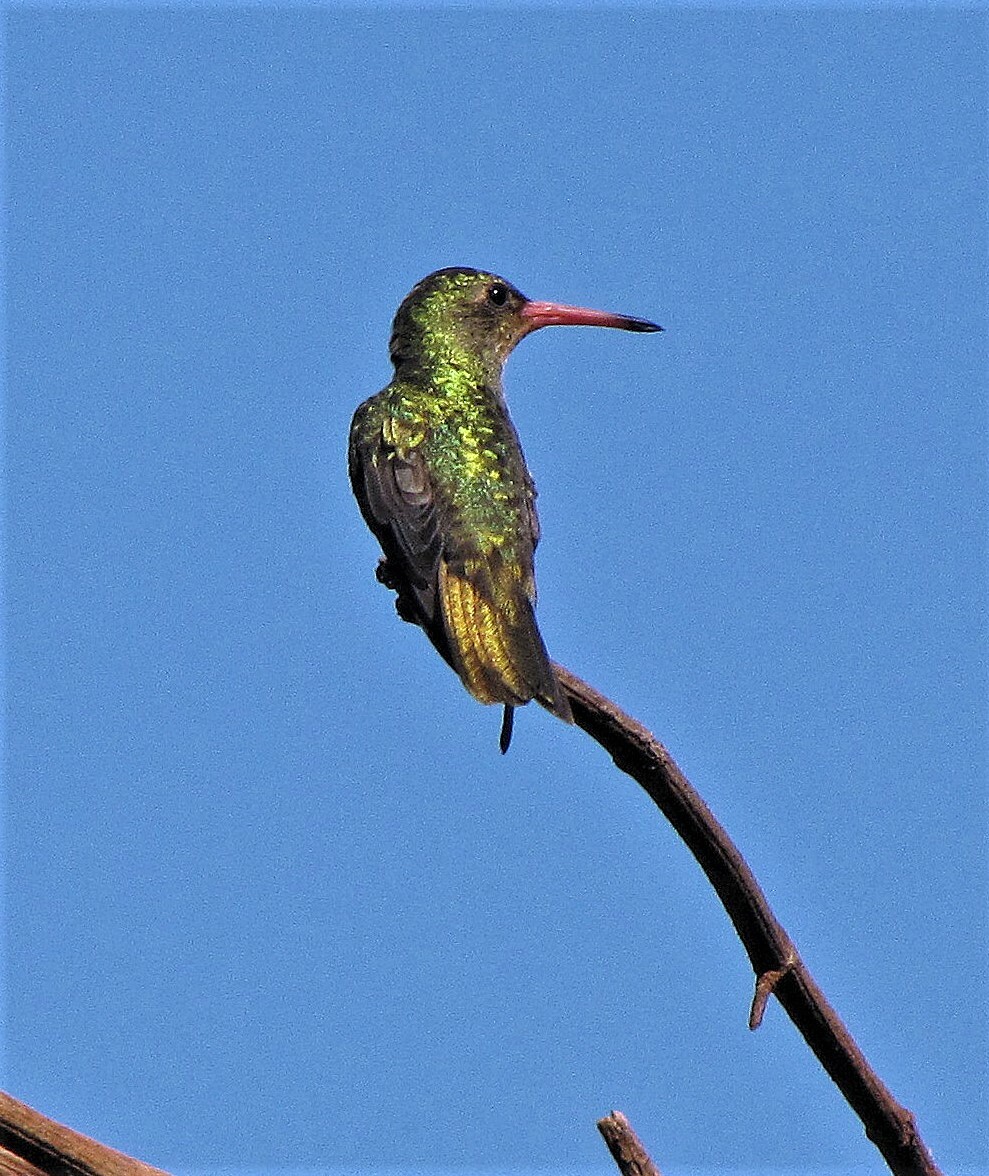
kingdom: Animalia
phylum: Chordata
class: Aves
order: Apodiformes
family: Trochilidae
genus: Hylocharis
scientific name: Hylocharis chrysura
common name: Gilded sapphire
